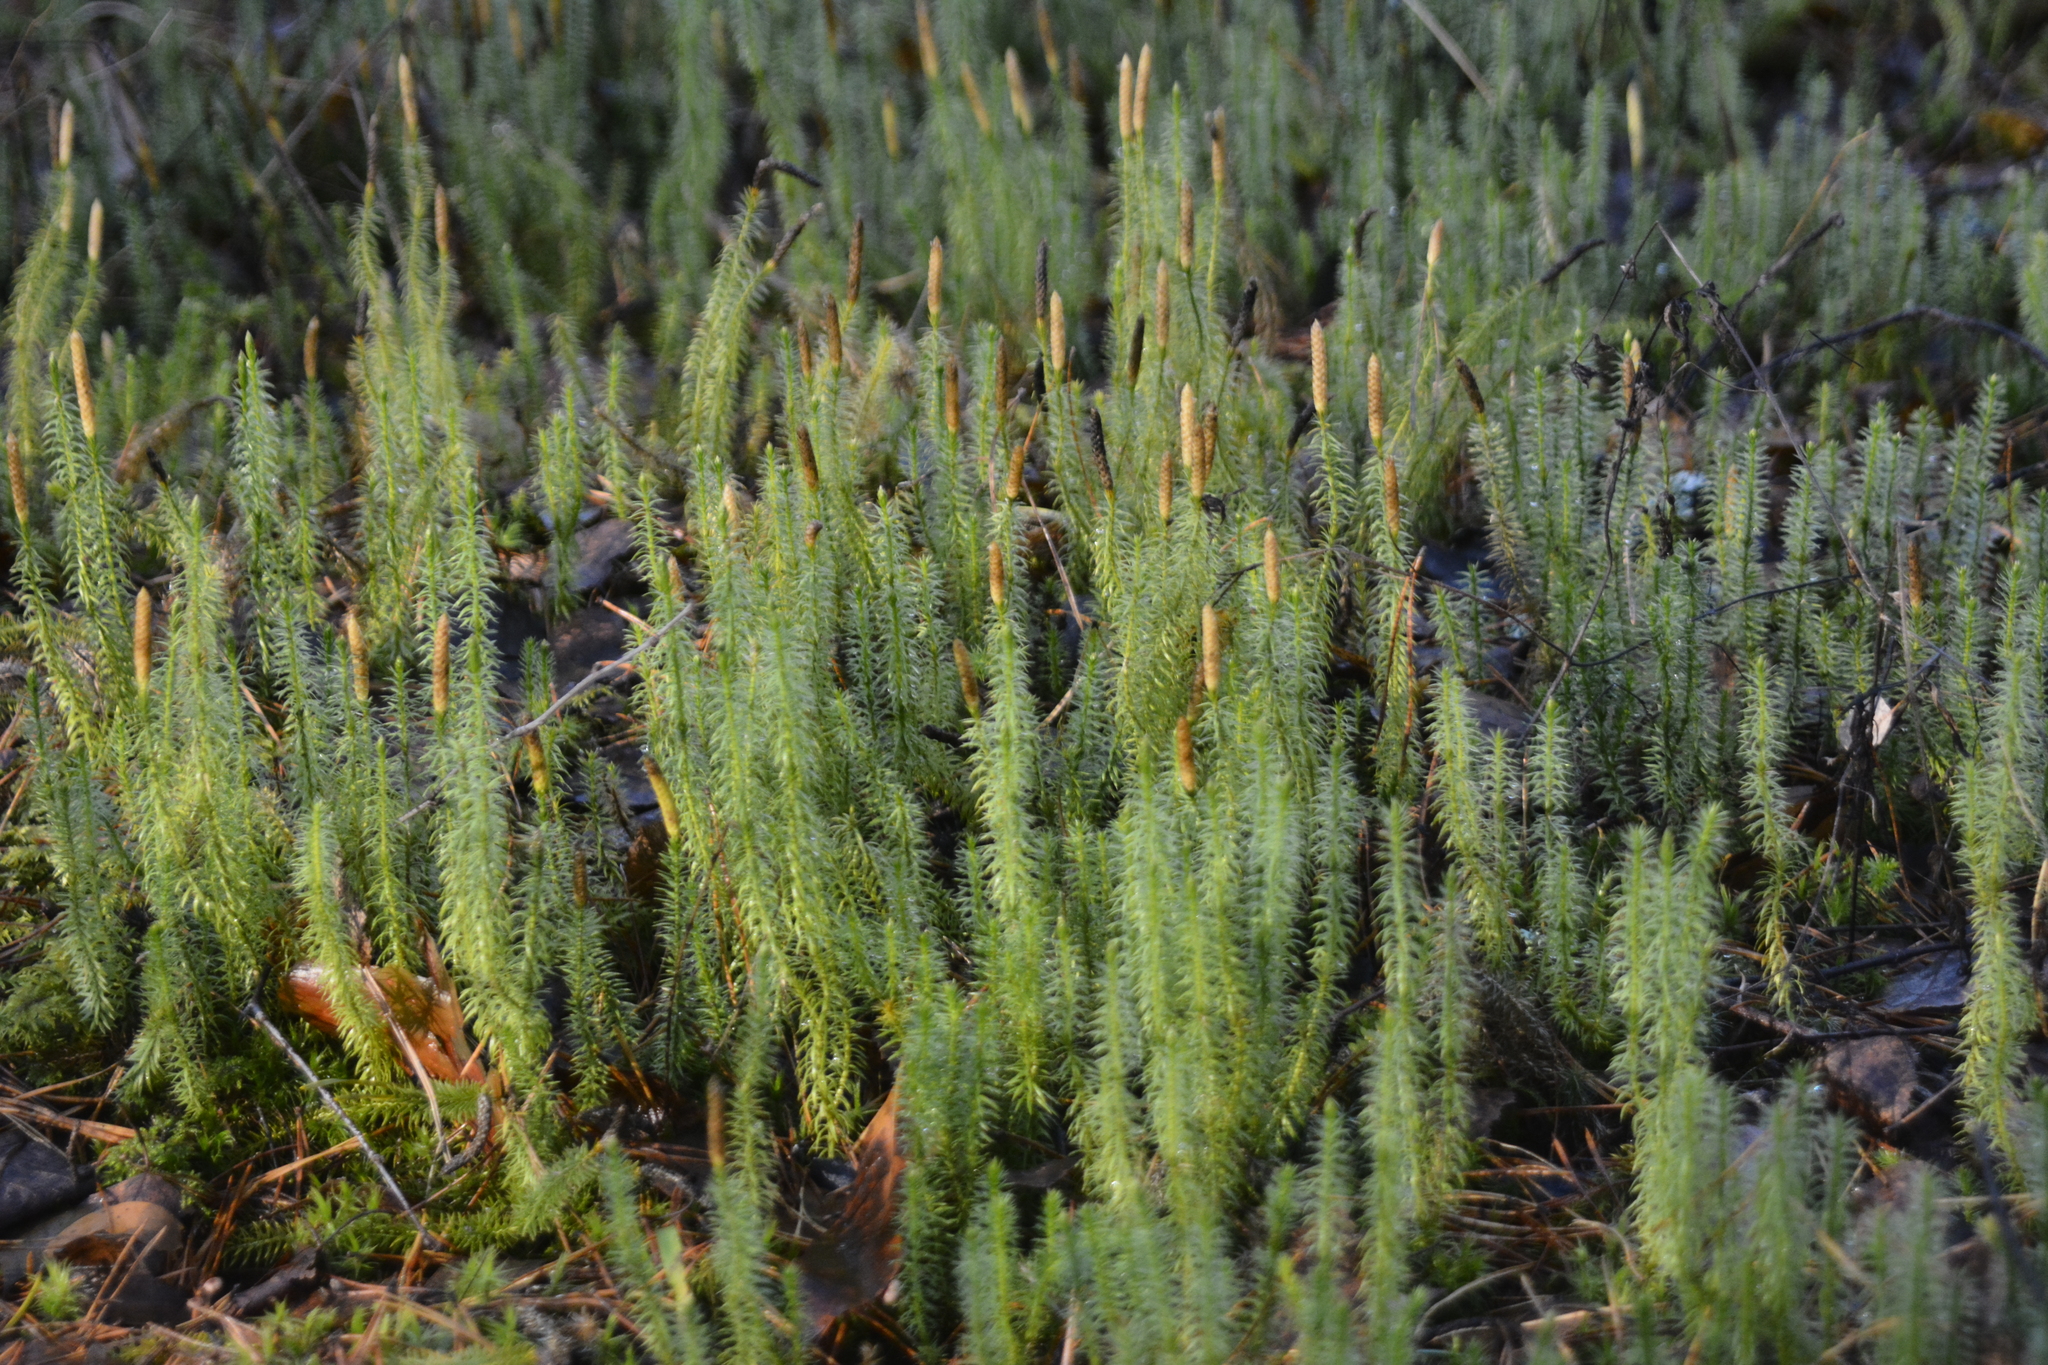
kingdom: Plantae
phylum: Tracheophyta
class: Lycopodiopsida
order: Lycopodiales
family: Lycopodiaceae
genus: Spinulum
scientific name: Spinulum annotinum
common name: Interrupted club-moss
